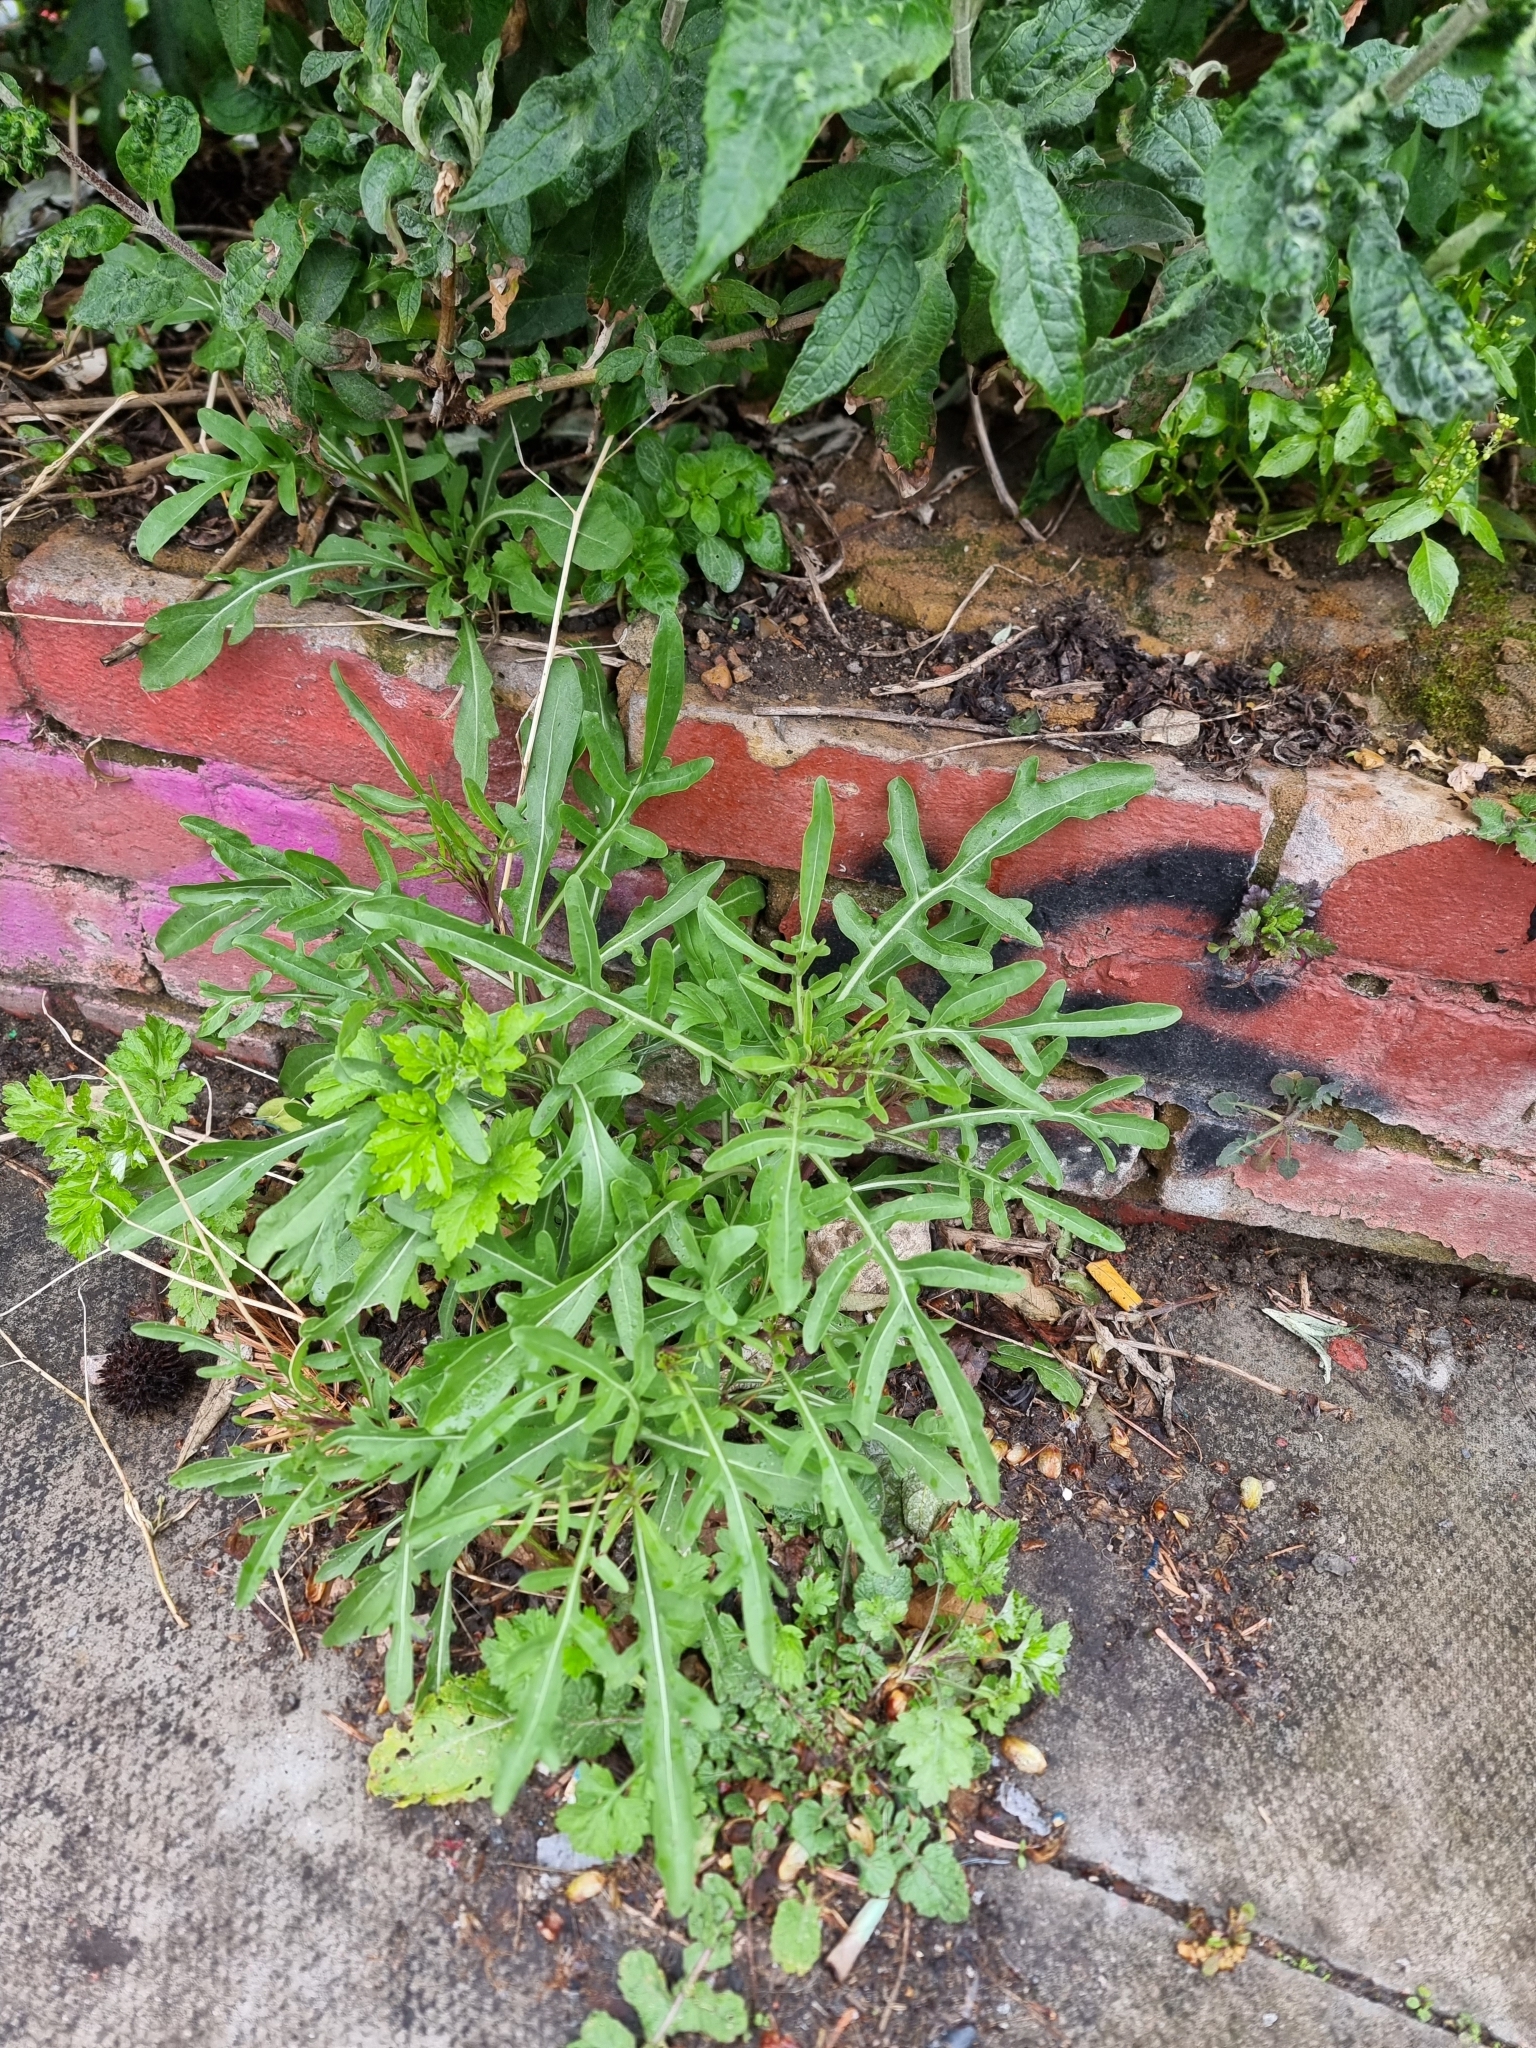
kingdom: Plantae
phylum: Tracheophyta
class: Magnoliopsida
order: Brassicales
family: Brassicaceae
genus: Diplotaxis
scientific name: Diplotaxis tenuifolia
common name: Perennial wall-rocket
